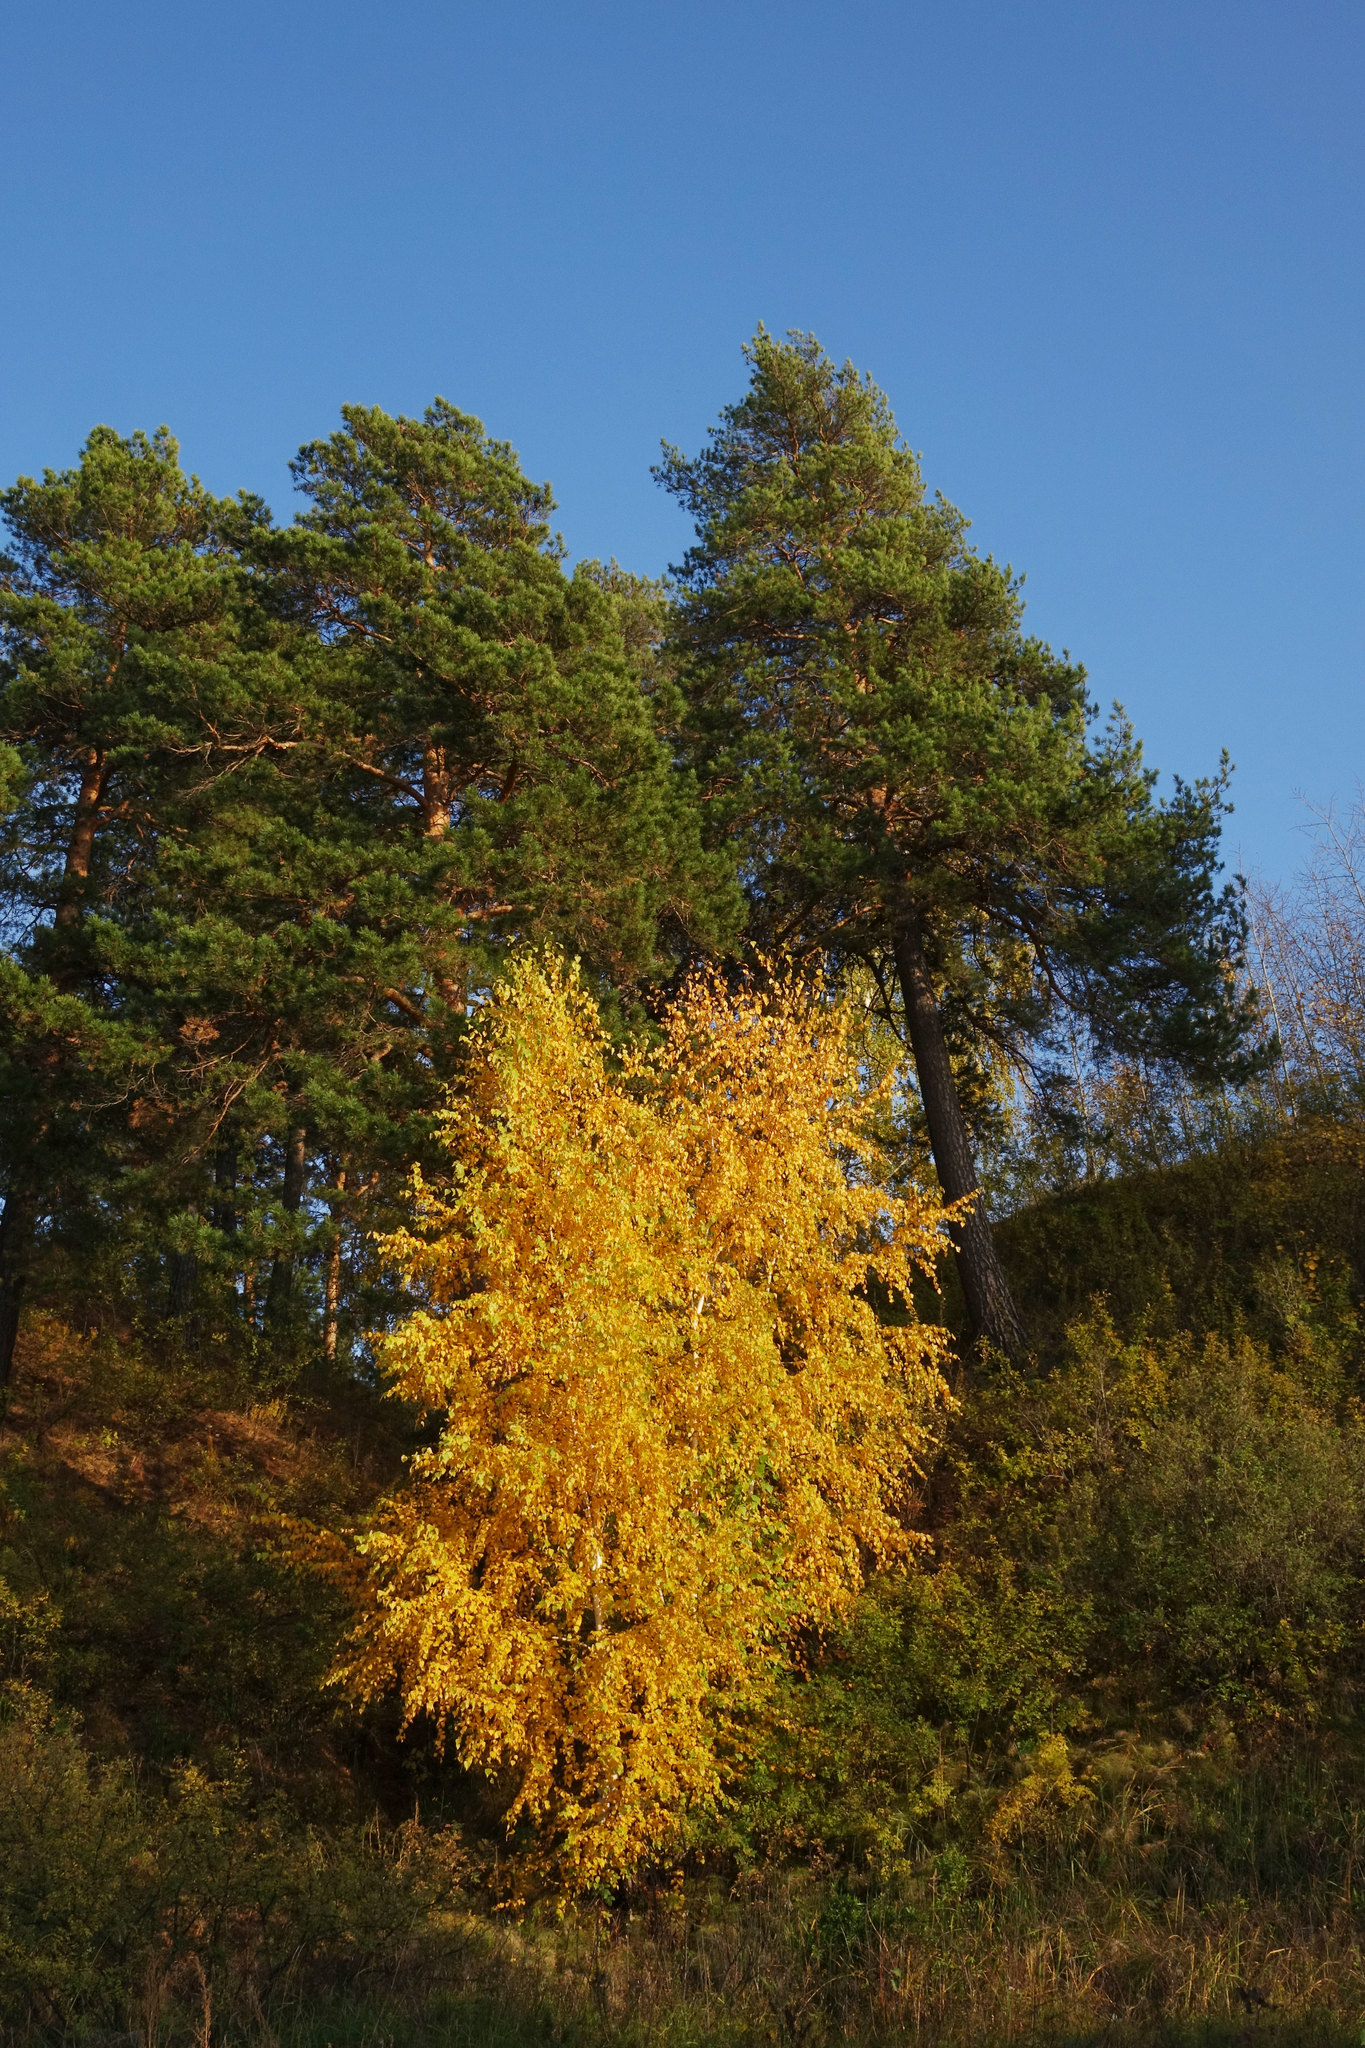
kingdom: Plantae
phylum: Tracheophyta
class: Pinopsida
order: Pinales
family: Pinaceae
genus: Pinus
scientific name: Pinus sylvestris
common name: Scots pine
